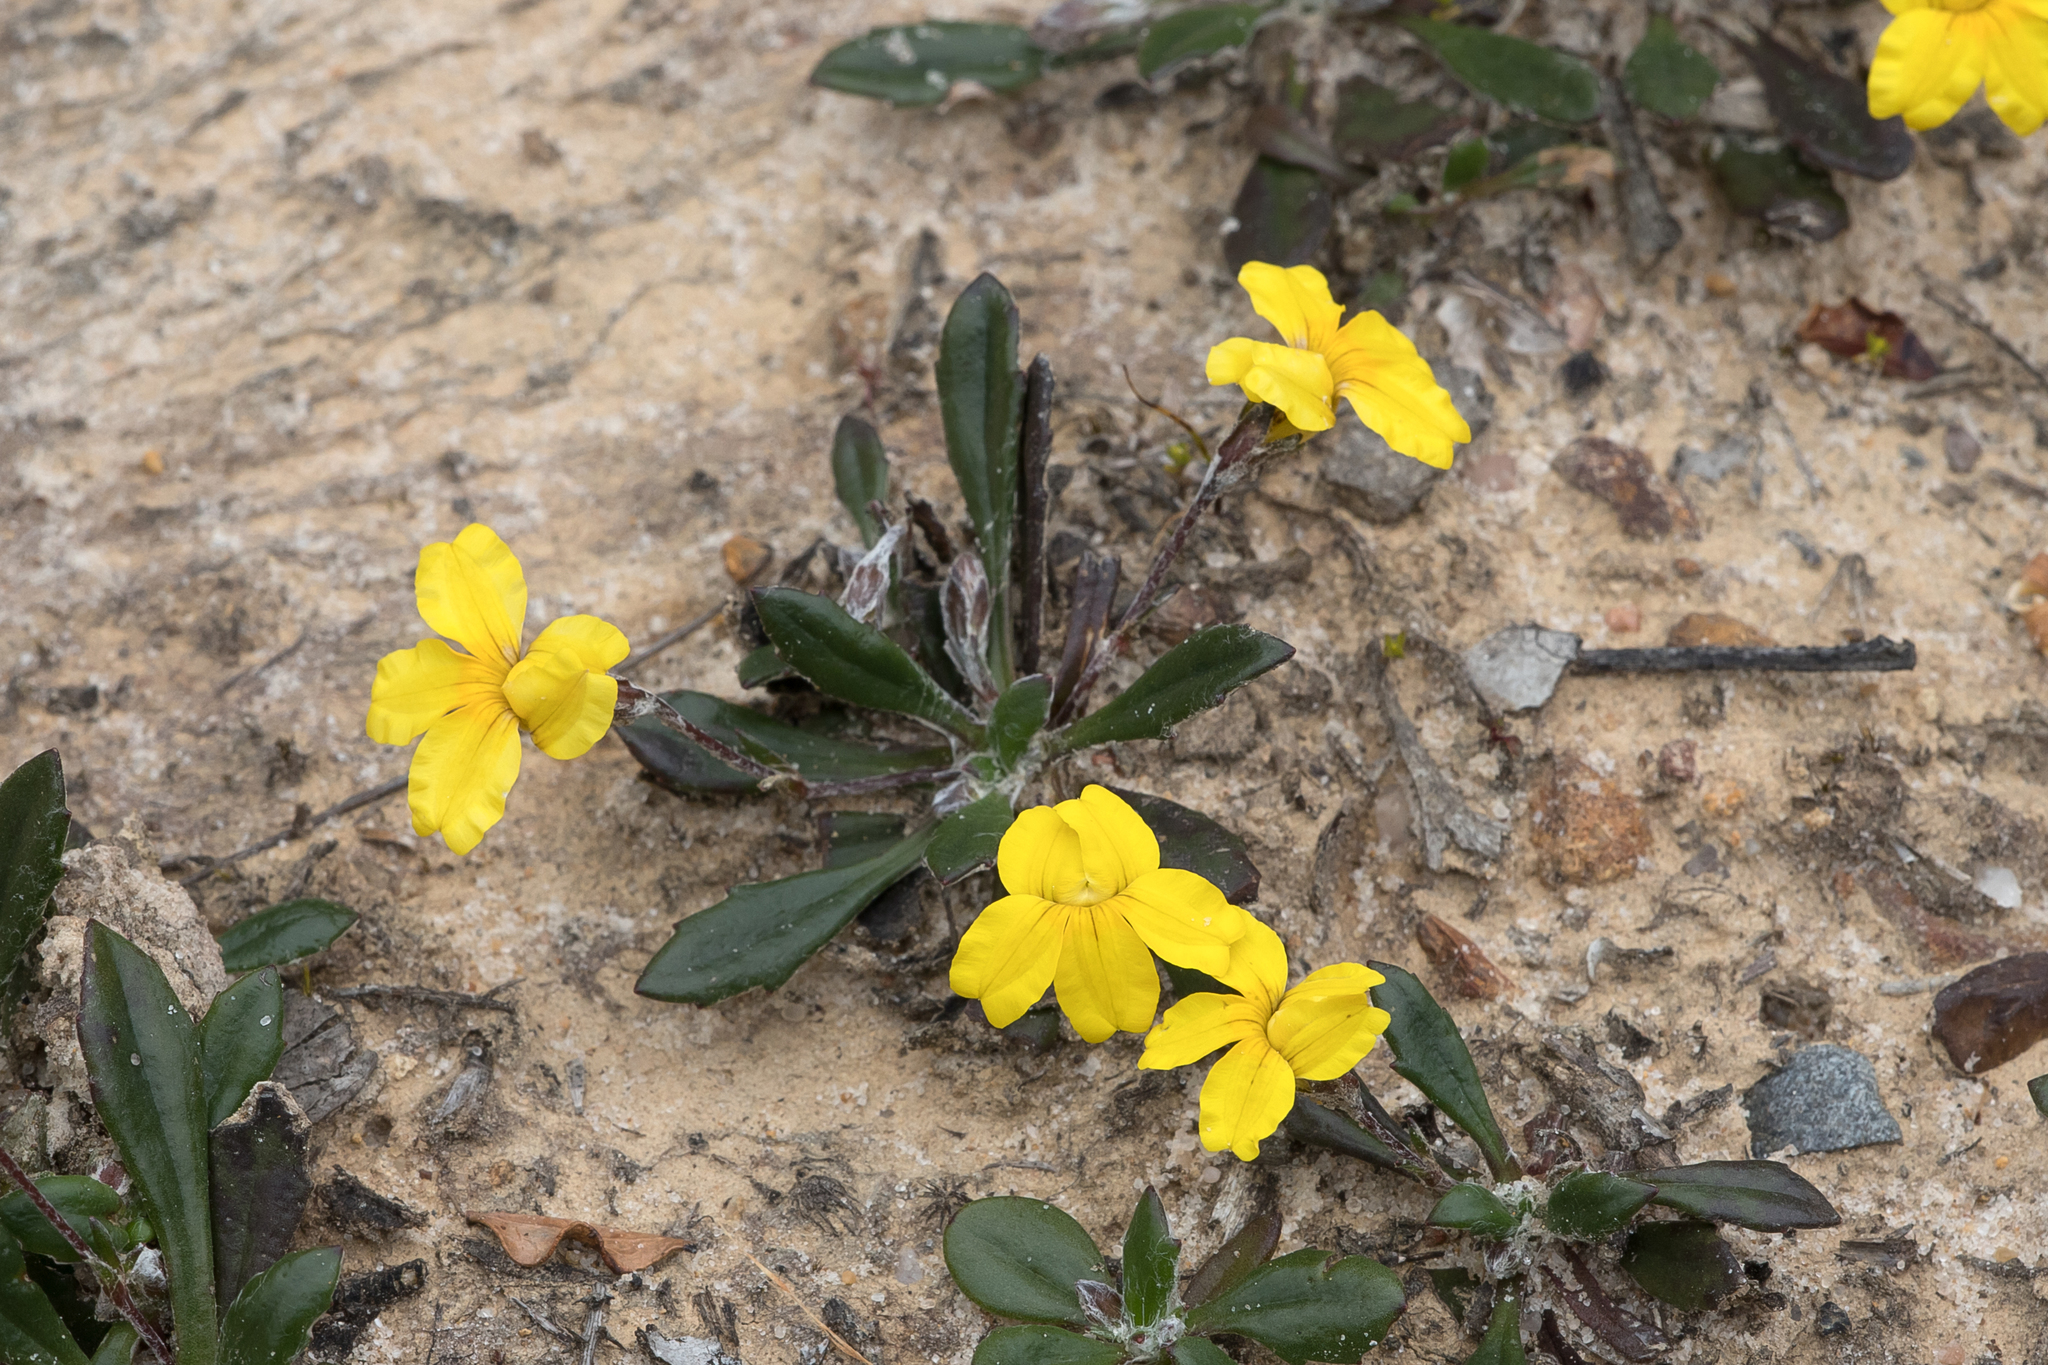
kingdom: Plantae
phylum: Tracheophyta
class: Magnoliopsida
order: Asterales
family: Goodeniaceae
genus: Goodenia
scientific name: Goodenia blackiana
